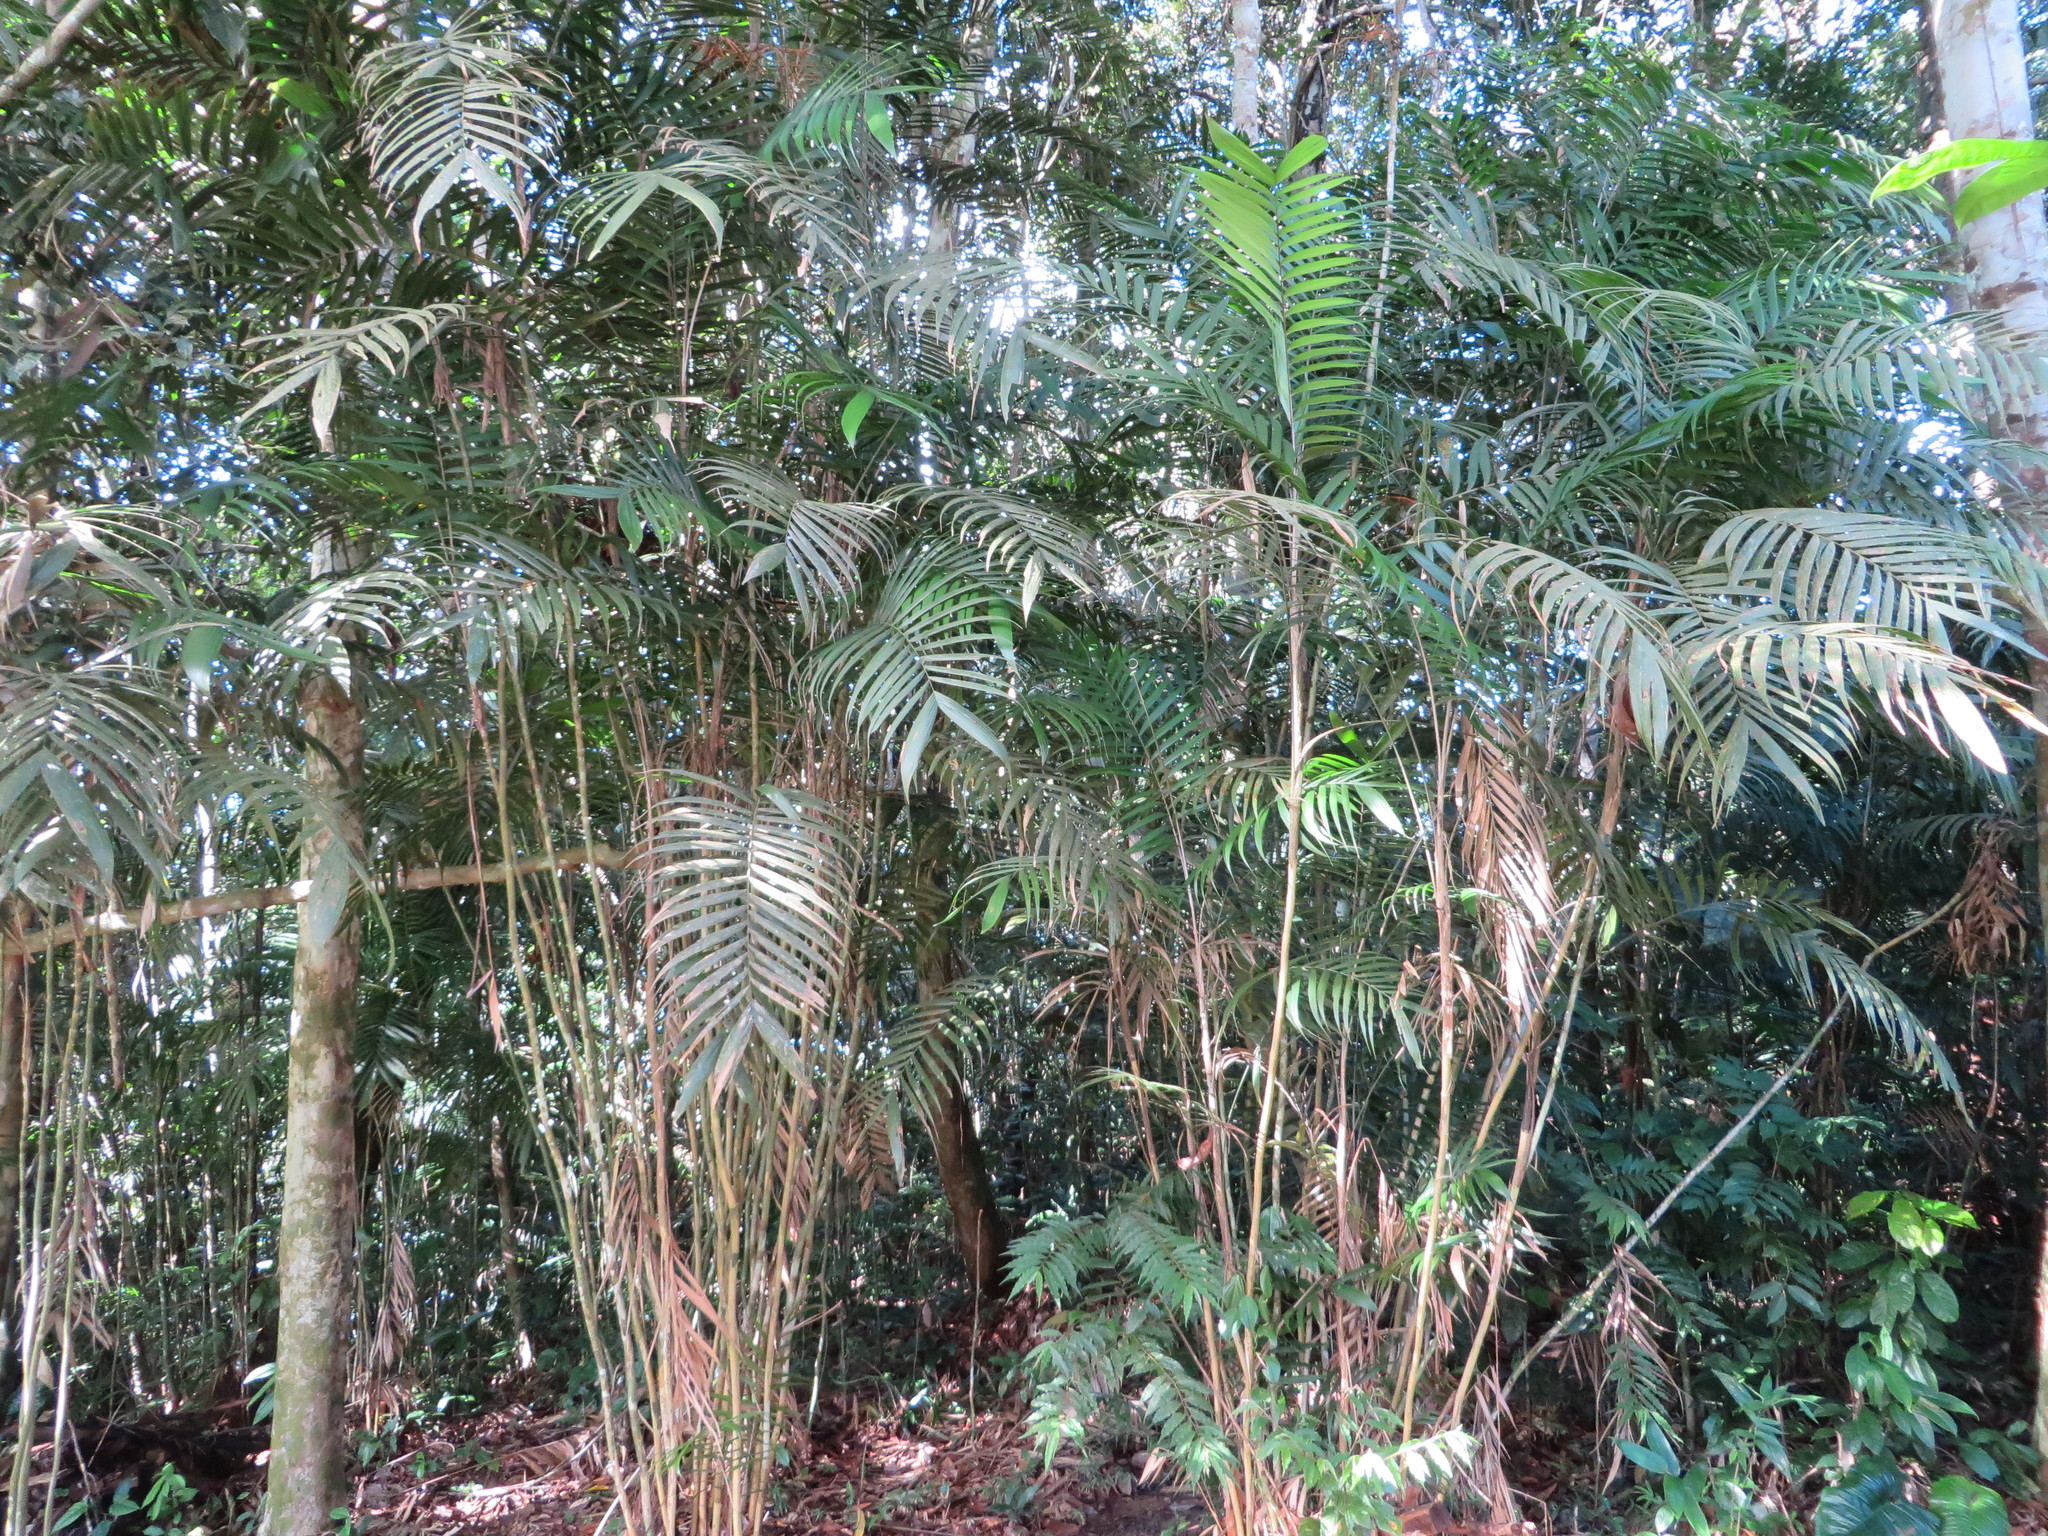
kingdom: Plantae
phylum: Tracheophyta
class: Liliopsida
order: Arecales
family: Arecaceae
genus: Geonoma
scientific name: Geonoma maxima
